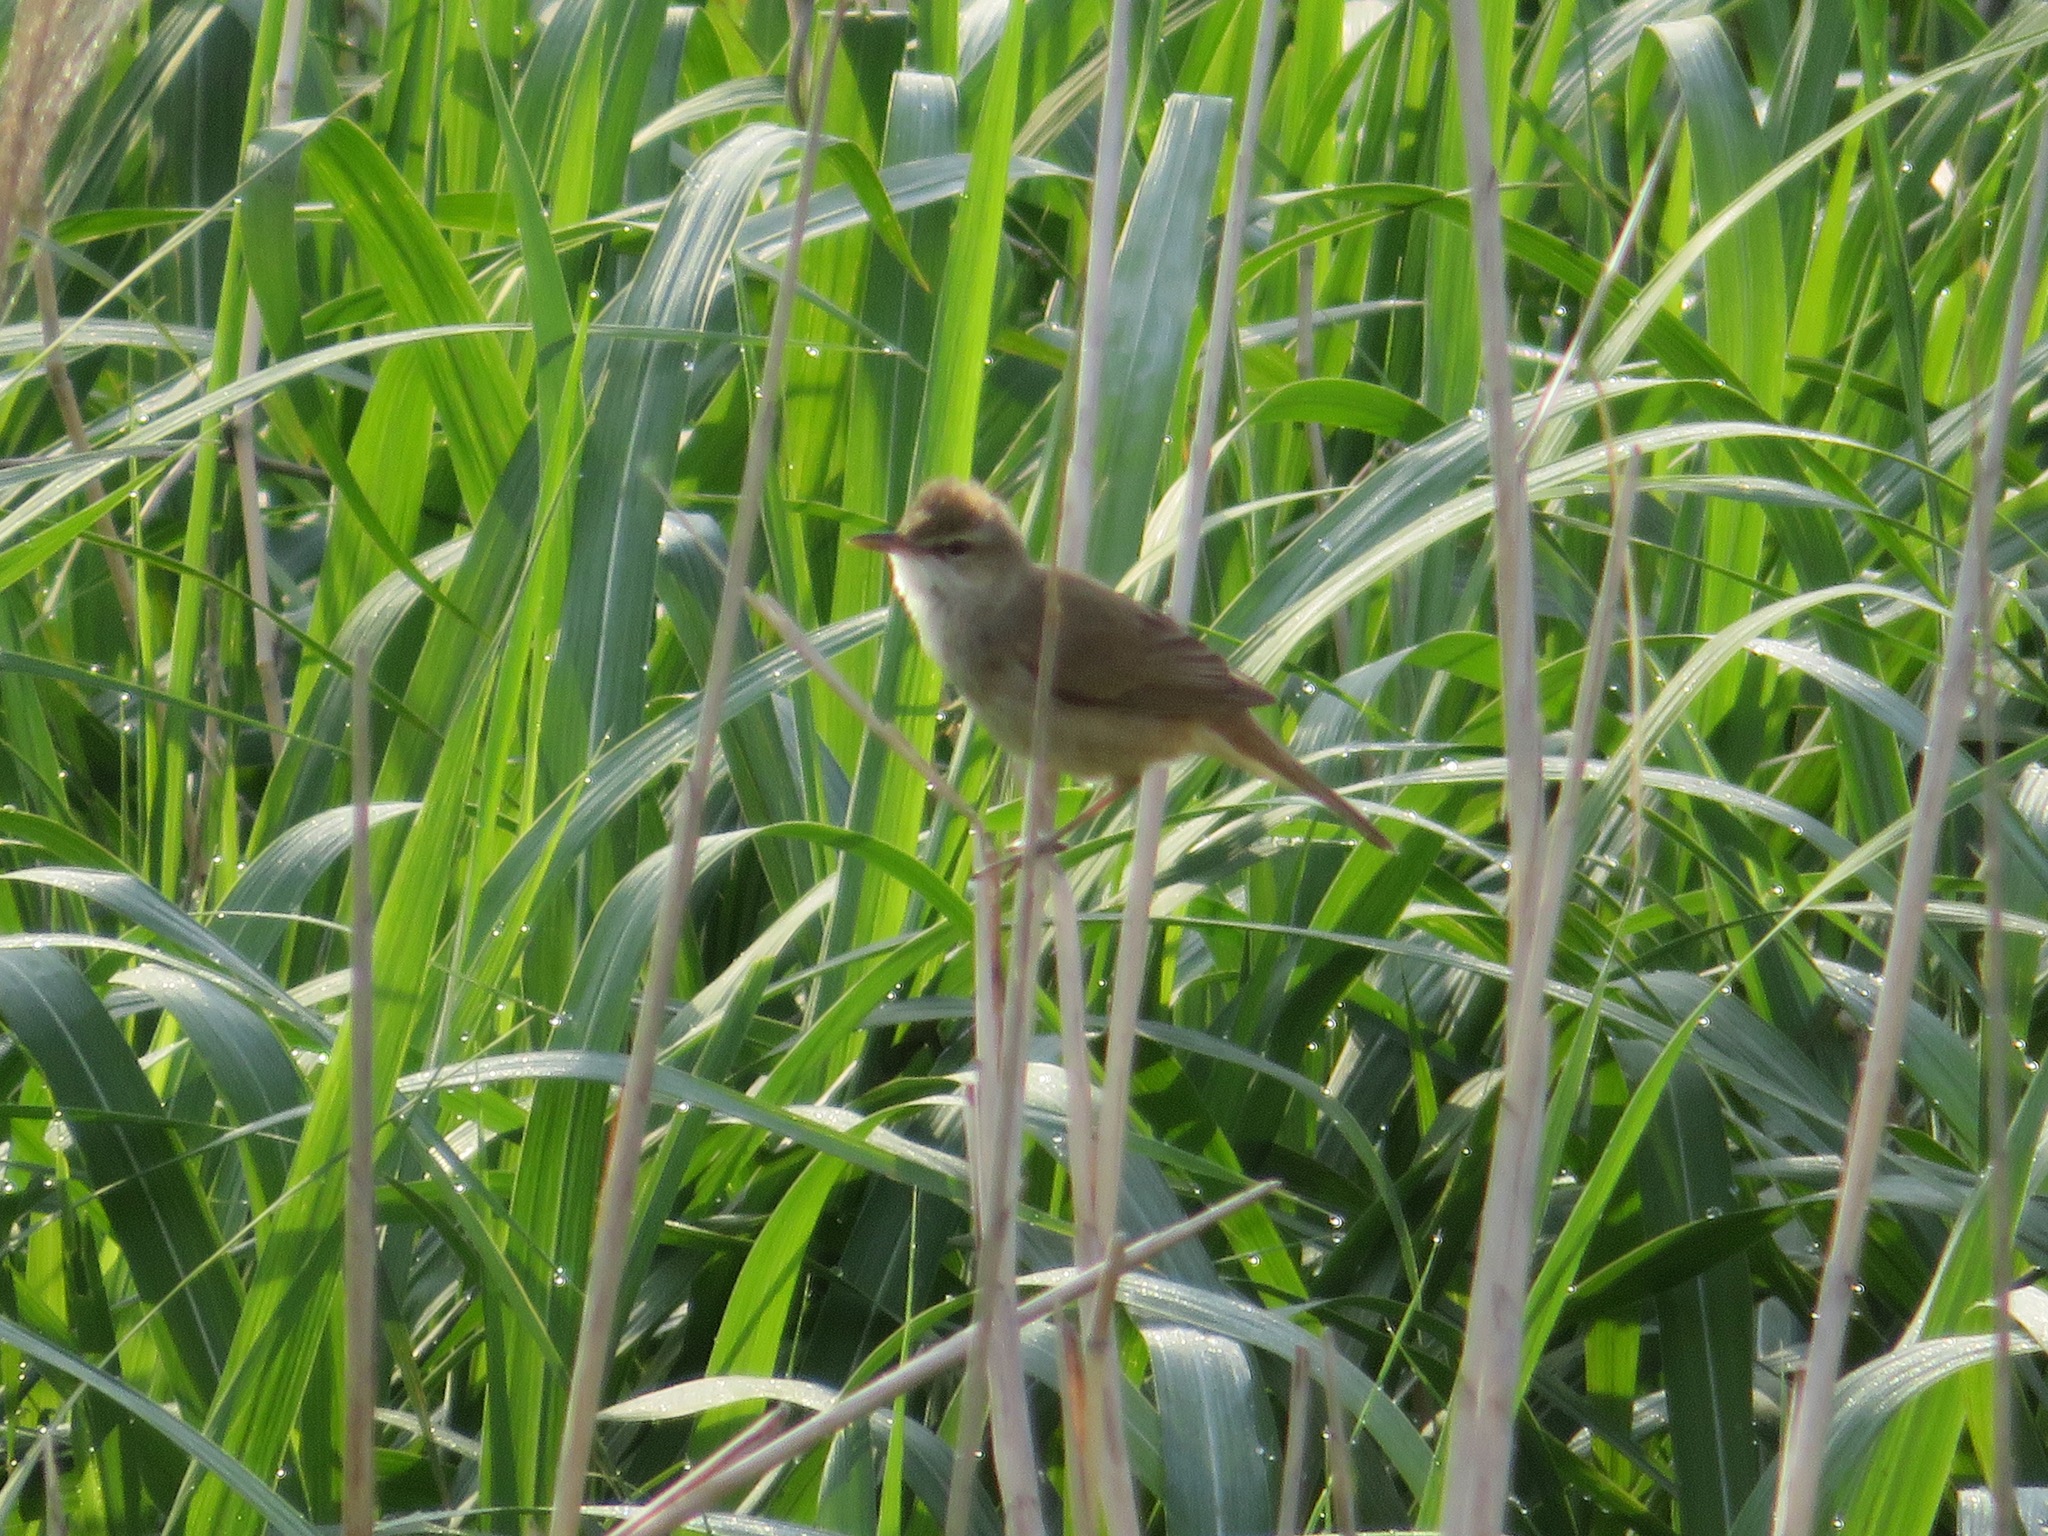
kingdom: Animalia
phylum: Chordata
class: Aves
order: Passeriformes
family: Acrocephalidae
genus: Acrocephalus
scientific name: Acrocephalus orientalis
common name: Oriental reed warbler
